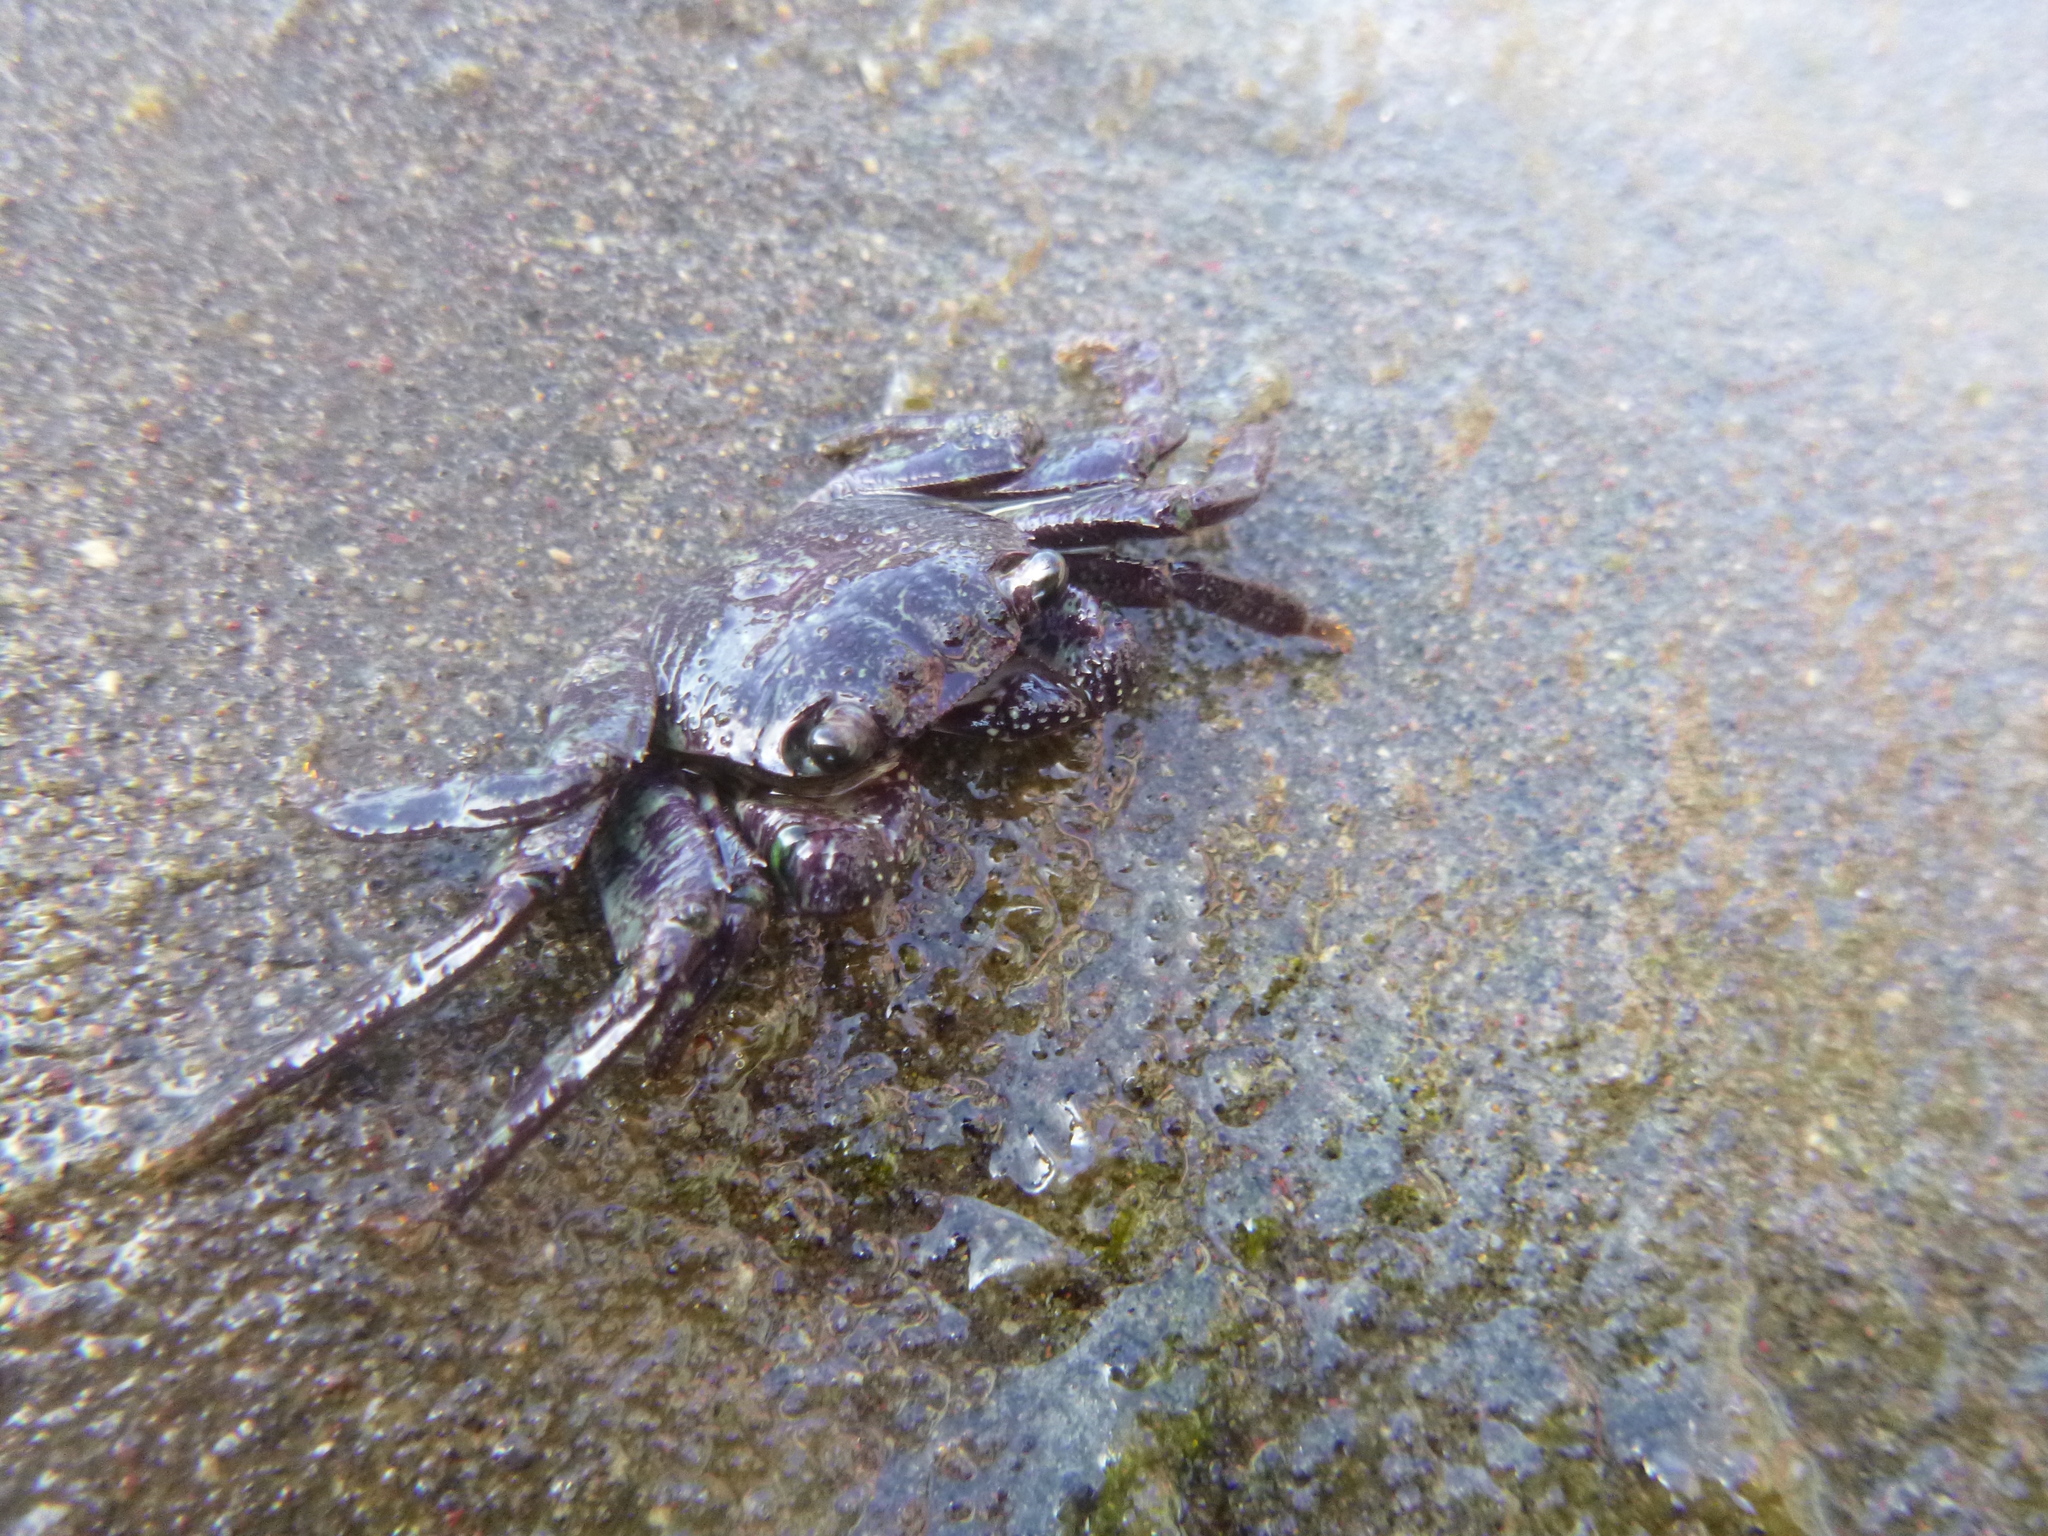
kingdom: Animalia
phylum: Arthropoda
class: Malacostraca
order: Decapoda
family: Grapsidae
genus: Leptograpsus
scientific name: Leptograpsus variegatus
